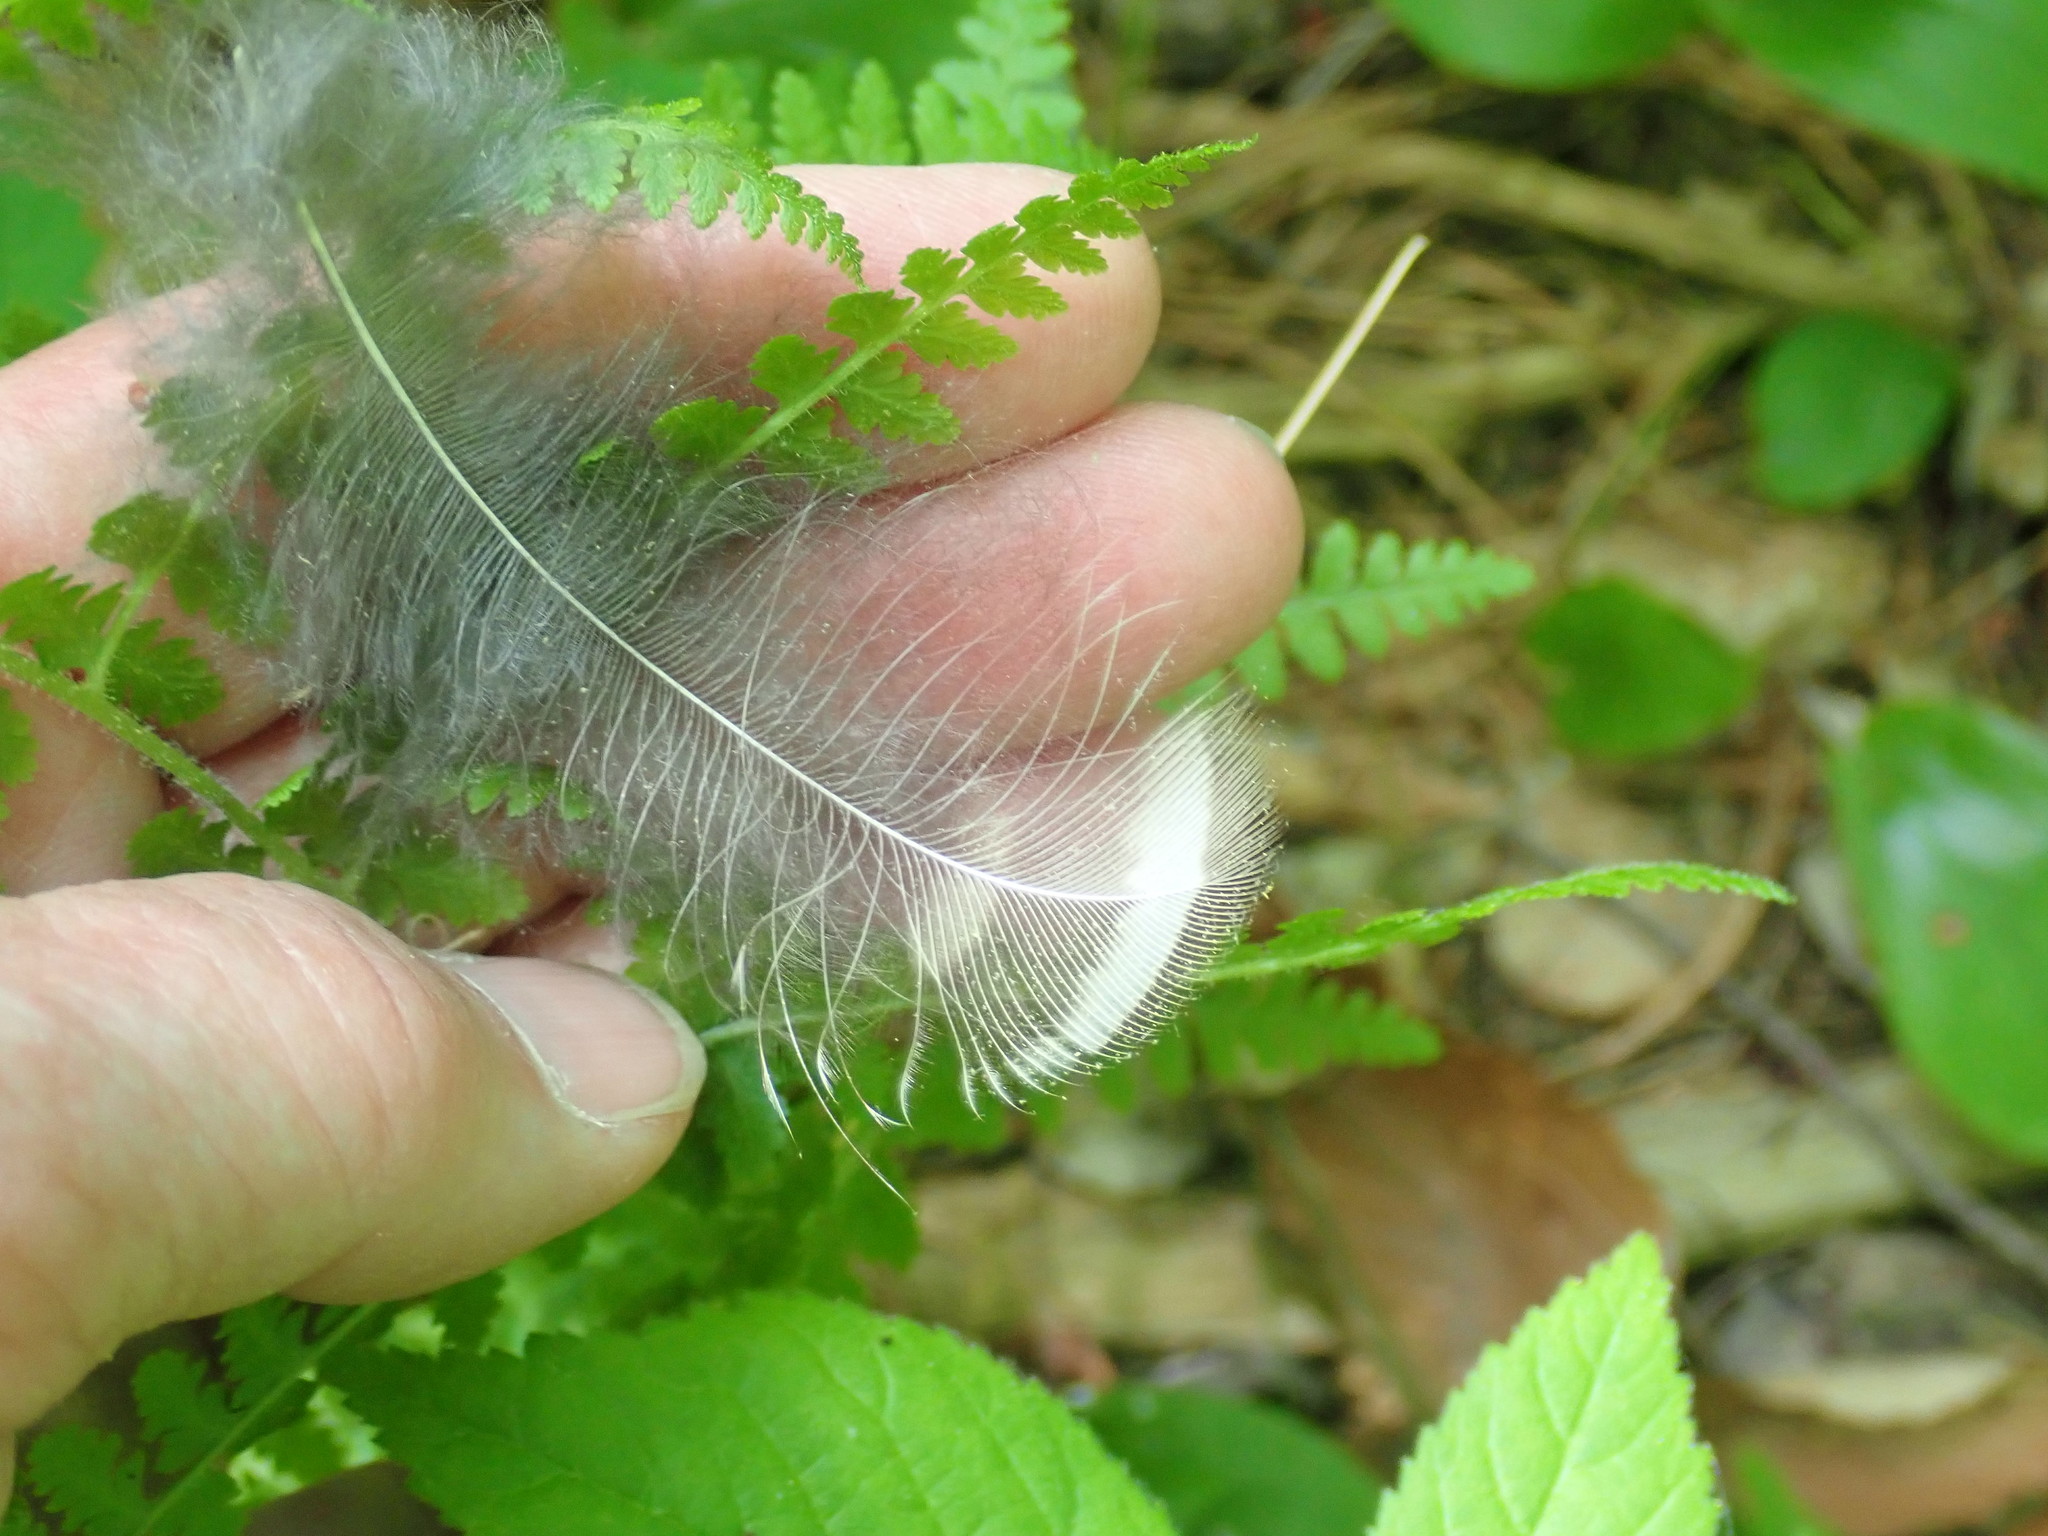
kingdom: Animalia
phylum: Chordata
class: Aves
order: Strigiformes
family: Strigidae
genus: Strix
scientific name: Strix varia
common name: Barred owl
